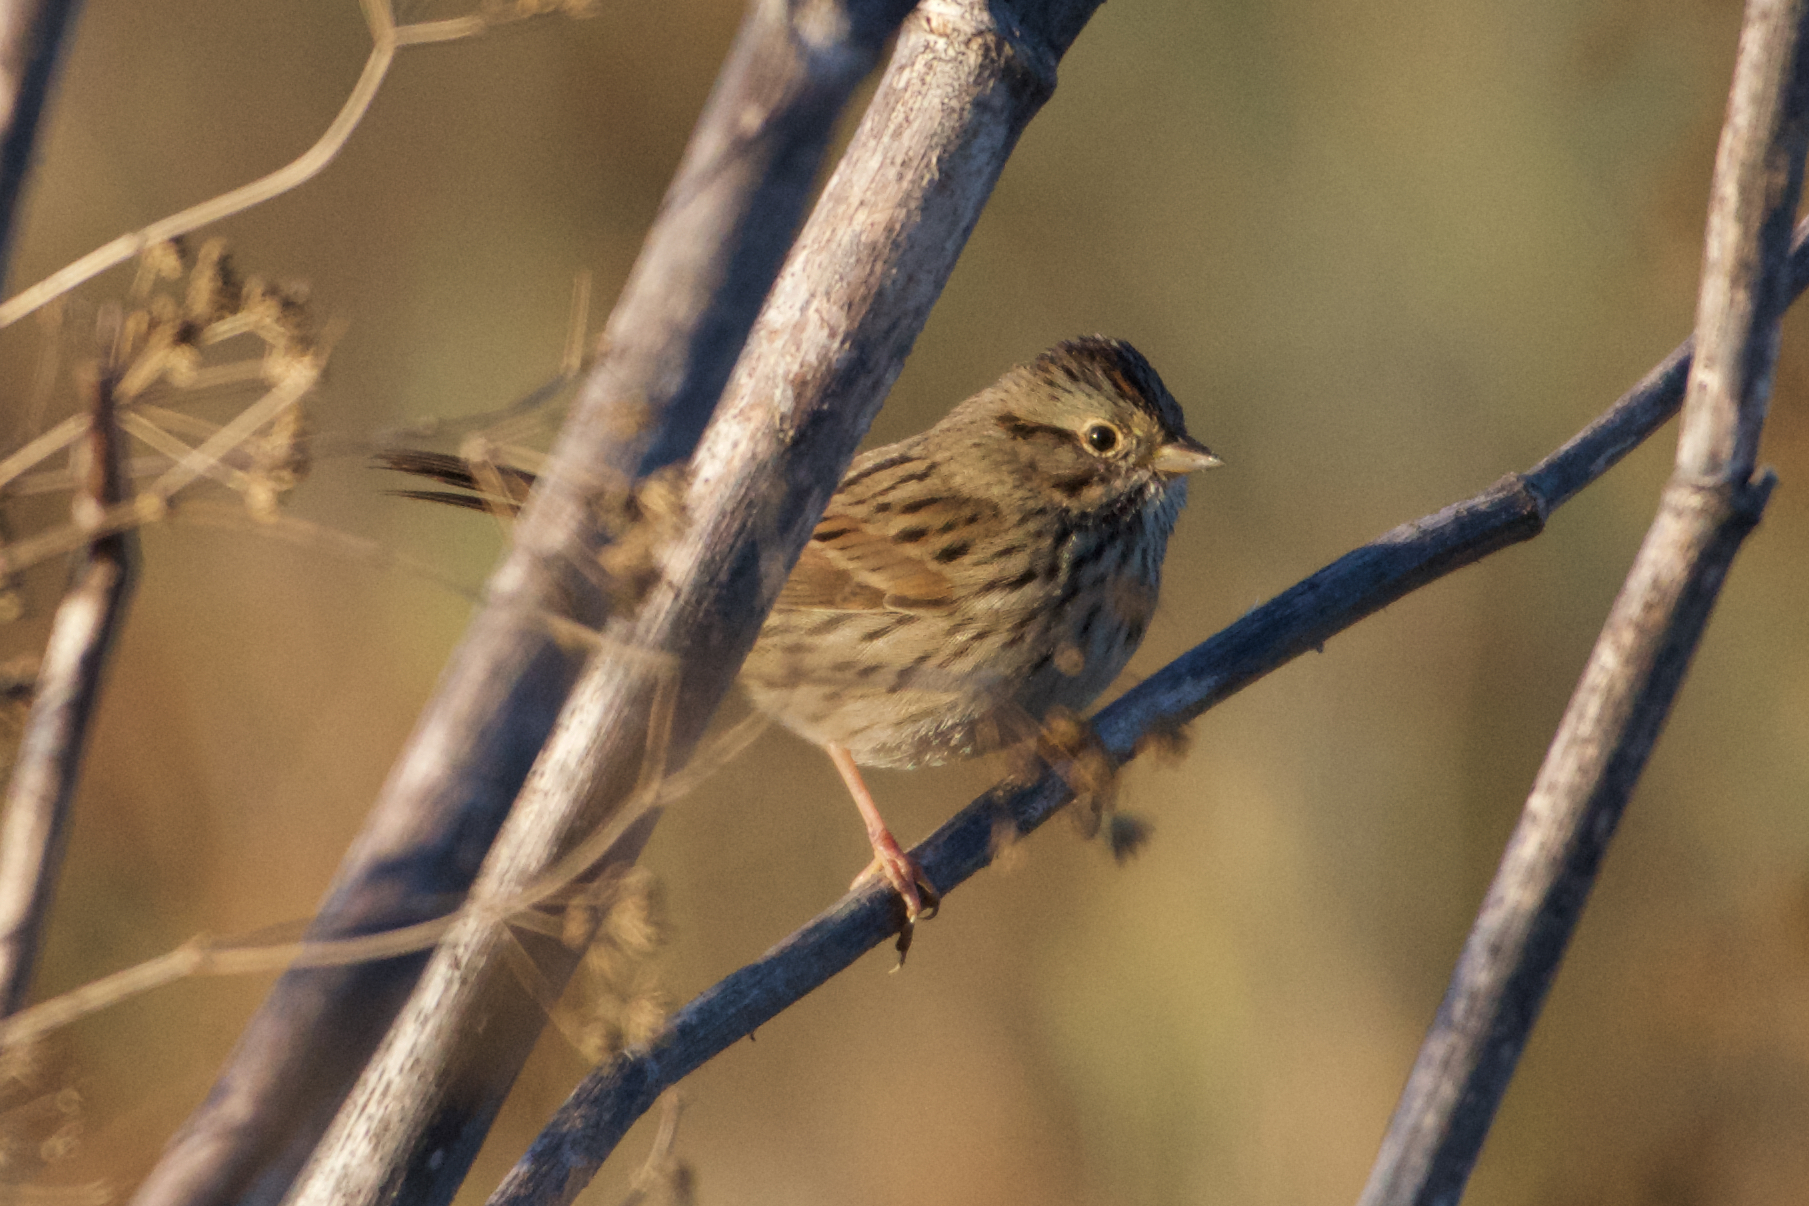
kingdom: Animalia
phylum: Chordata
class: Aves
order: Passeriformes
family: Passerellidae
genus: Melospiza
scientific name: Melospiza lincolnii
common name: Lincoln's sparrow
